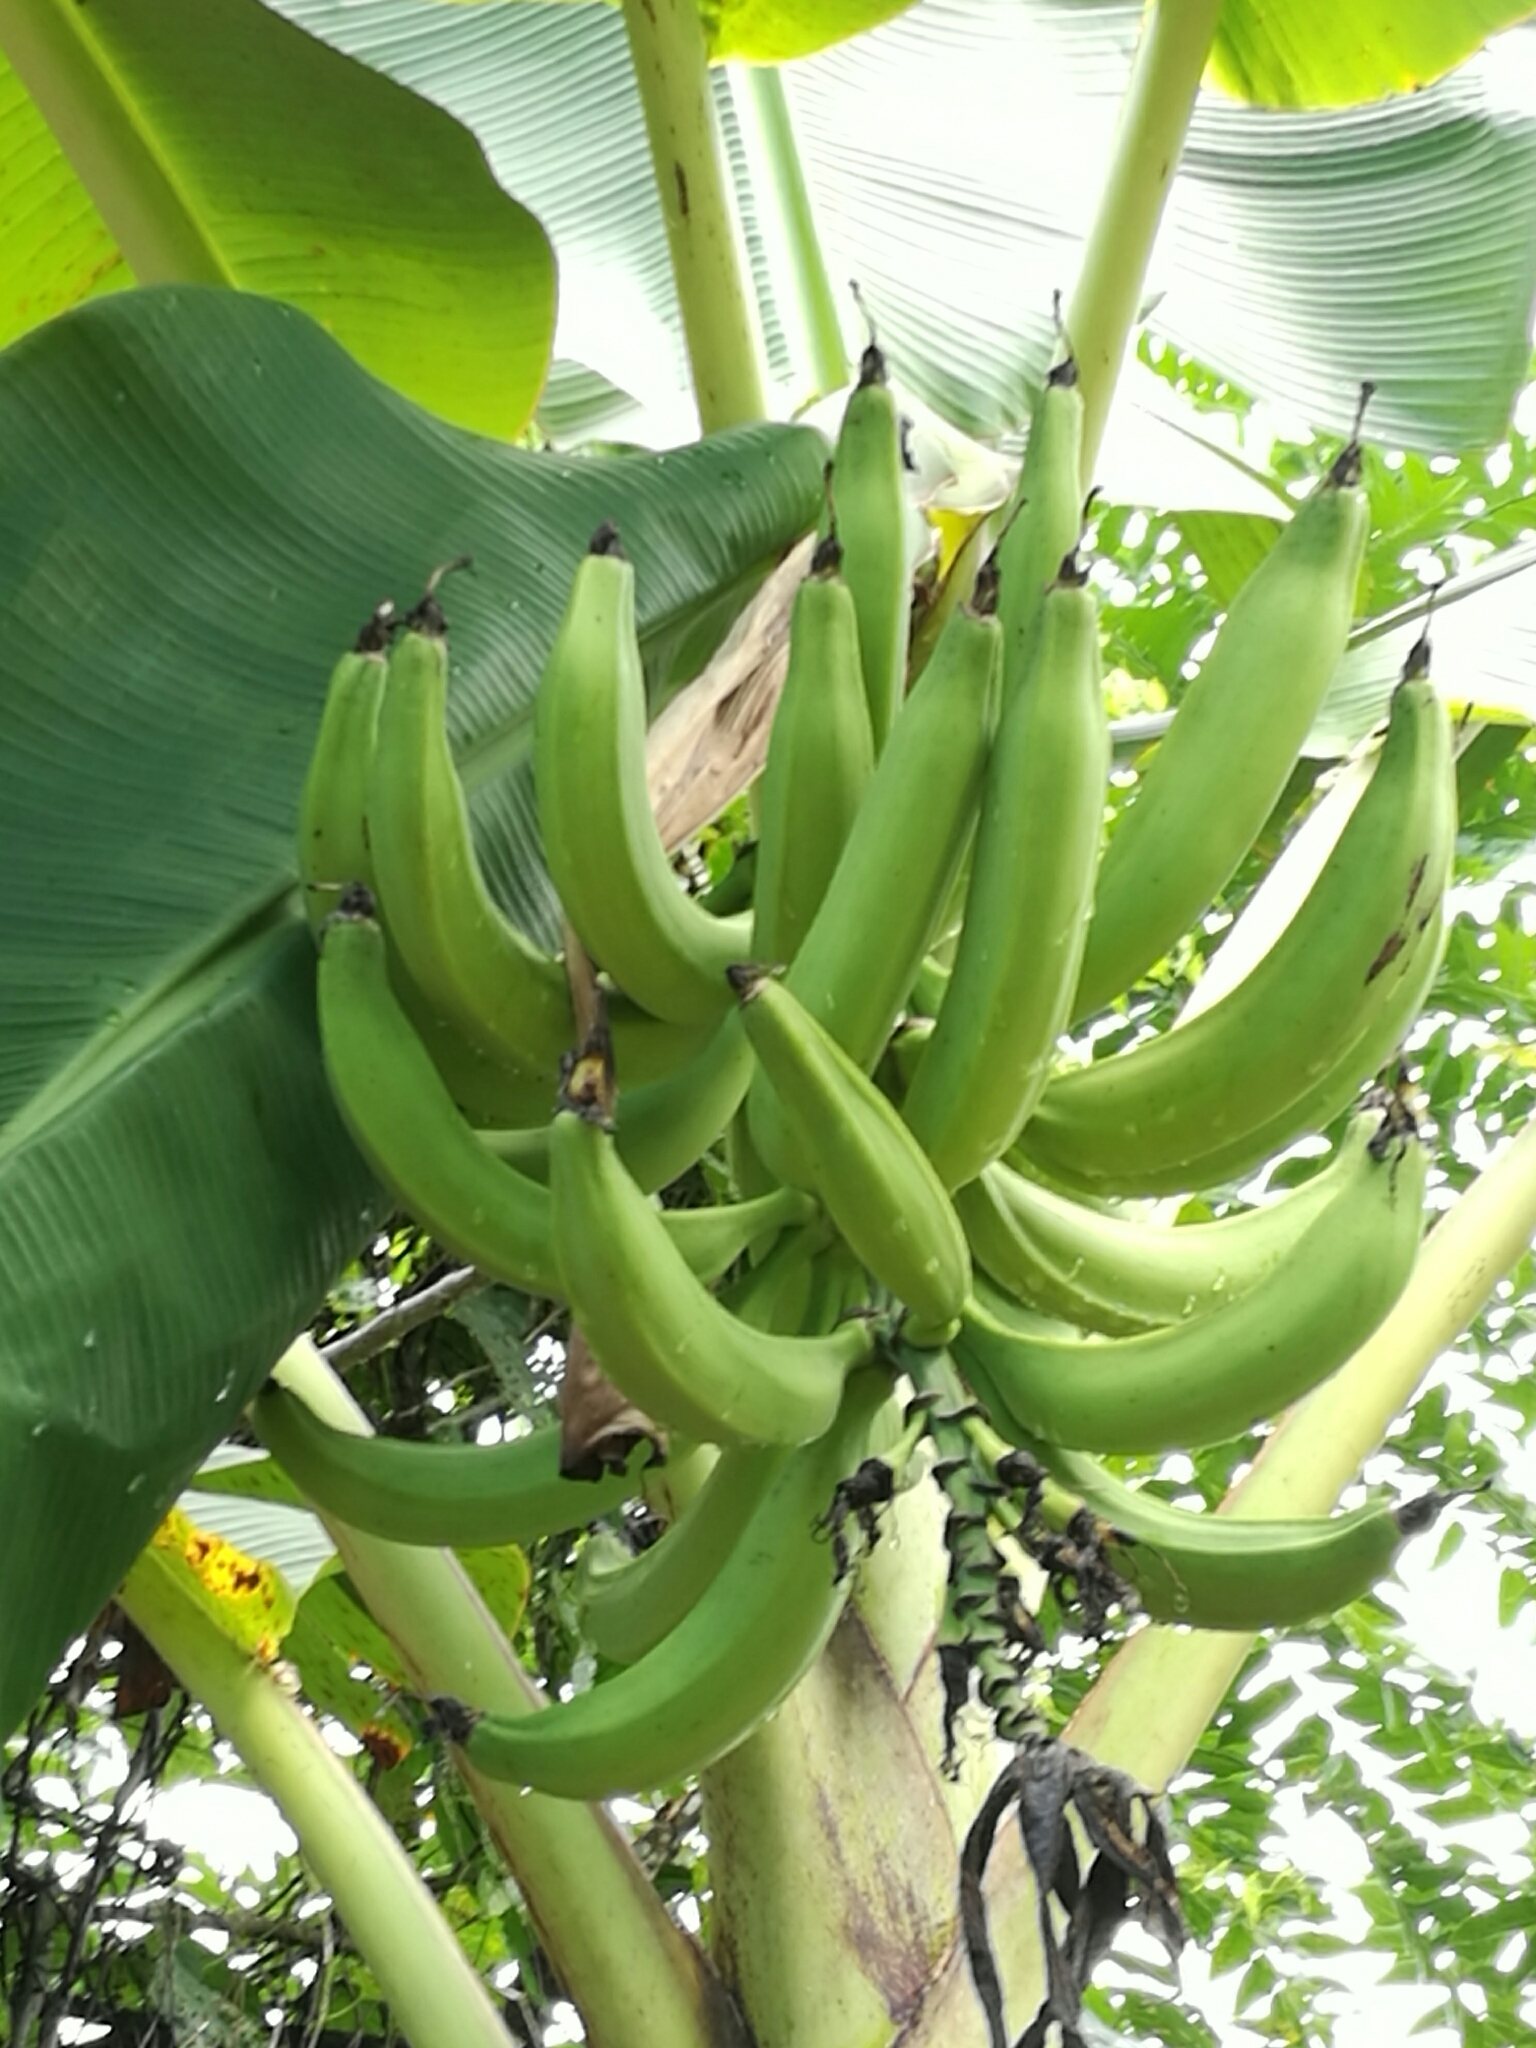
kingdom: Plantae
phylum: Tracheophyta
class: Liliopsida
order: Zingiberales
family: Musaceae
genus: Musa
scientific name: Musa paradisiaca
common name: French plantain
